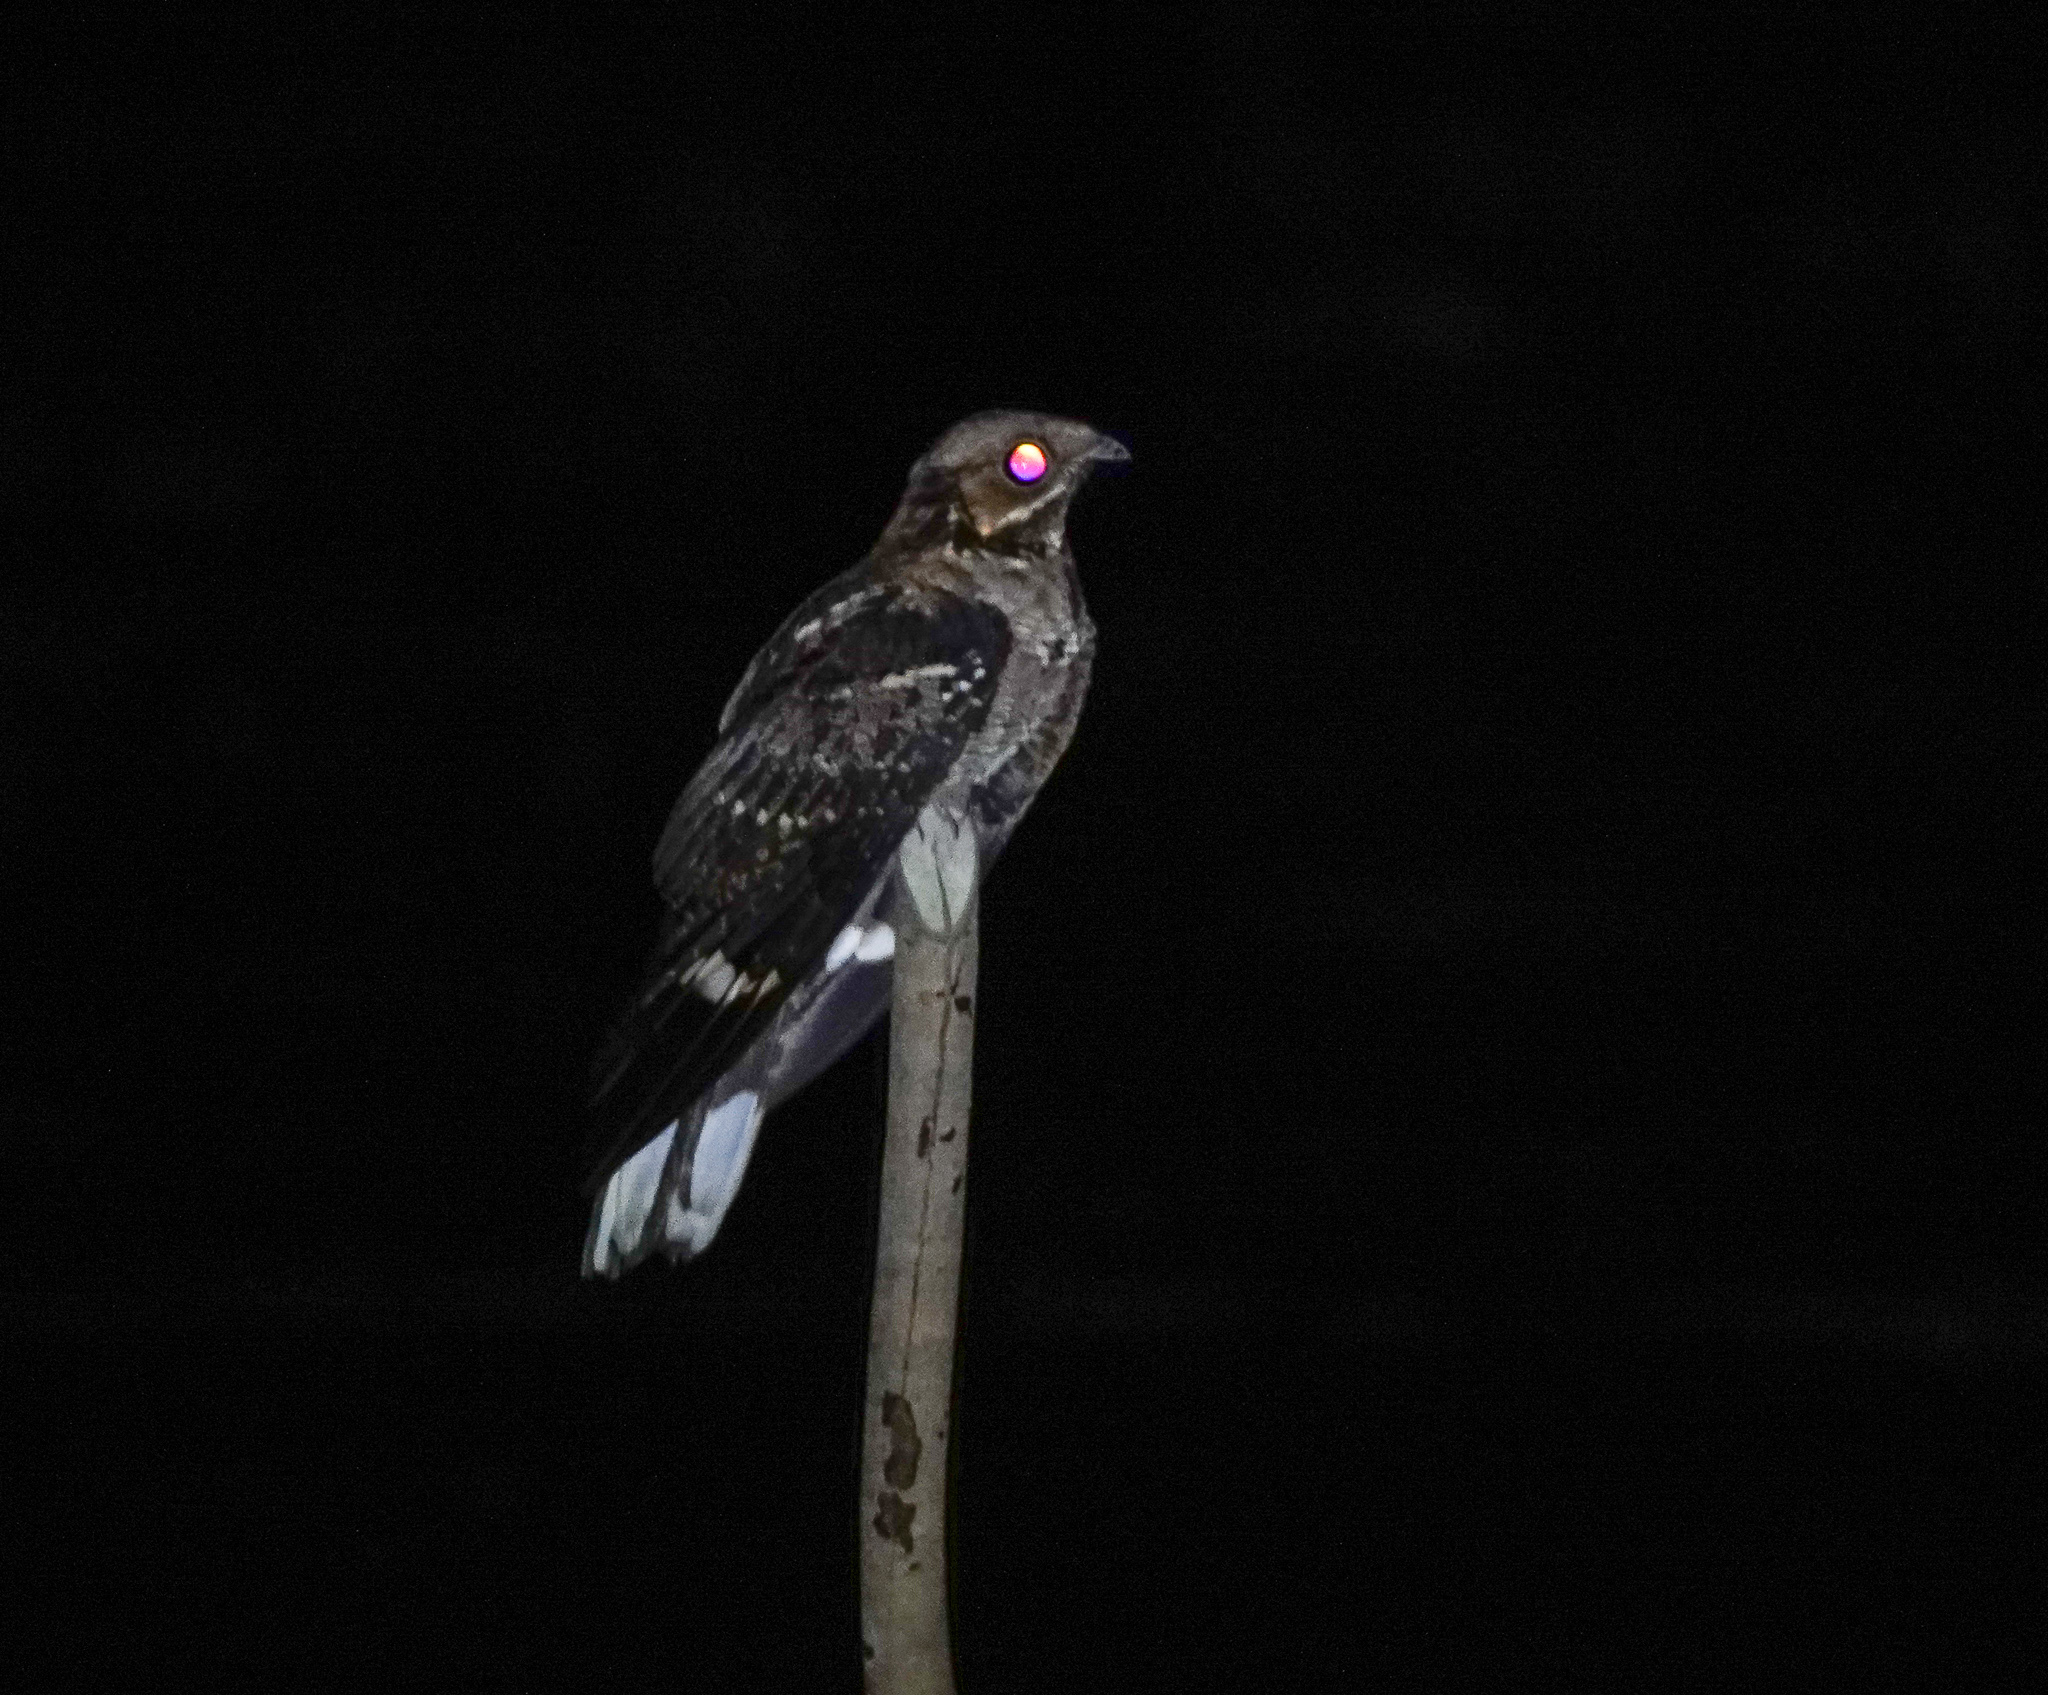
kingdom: Animalia
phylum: Chordata
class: Aves
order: Caprimulgiformes
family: Caprimulgidae
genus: Caprimulgus
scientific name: Caprimulgus macrurus
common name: Large-tailed nightjar
